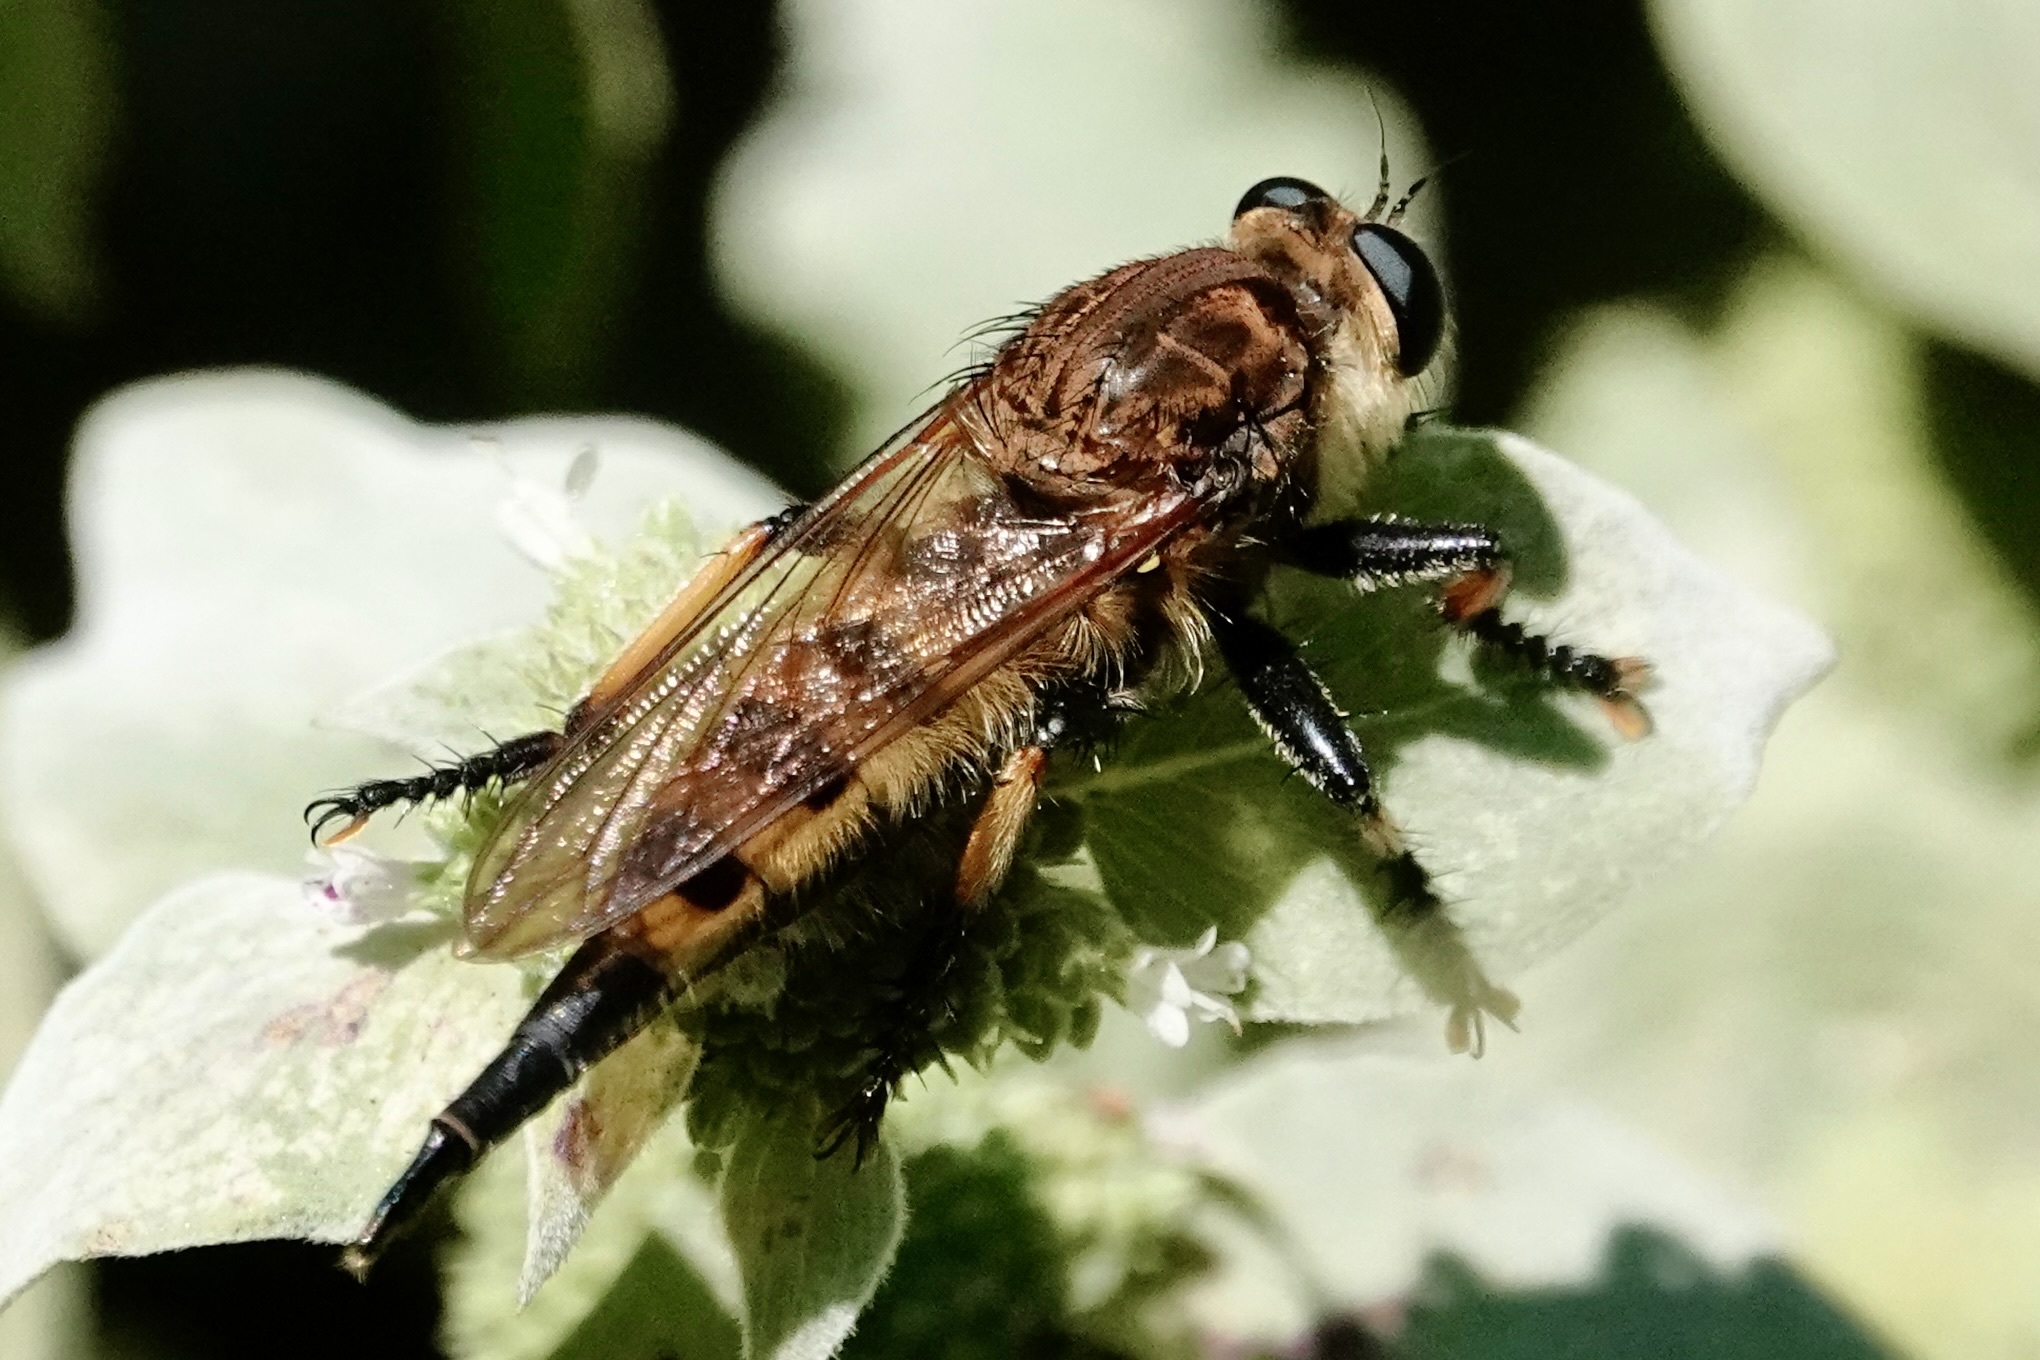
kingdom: Animalia
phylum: Arthropoda
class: Insecta
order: Diptera
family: Asilidae
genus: Promachus
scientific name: Promachus rufipes
